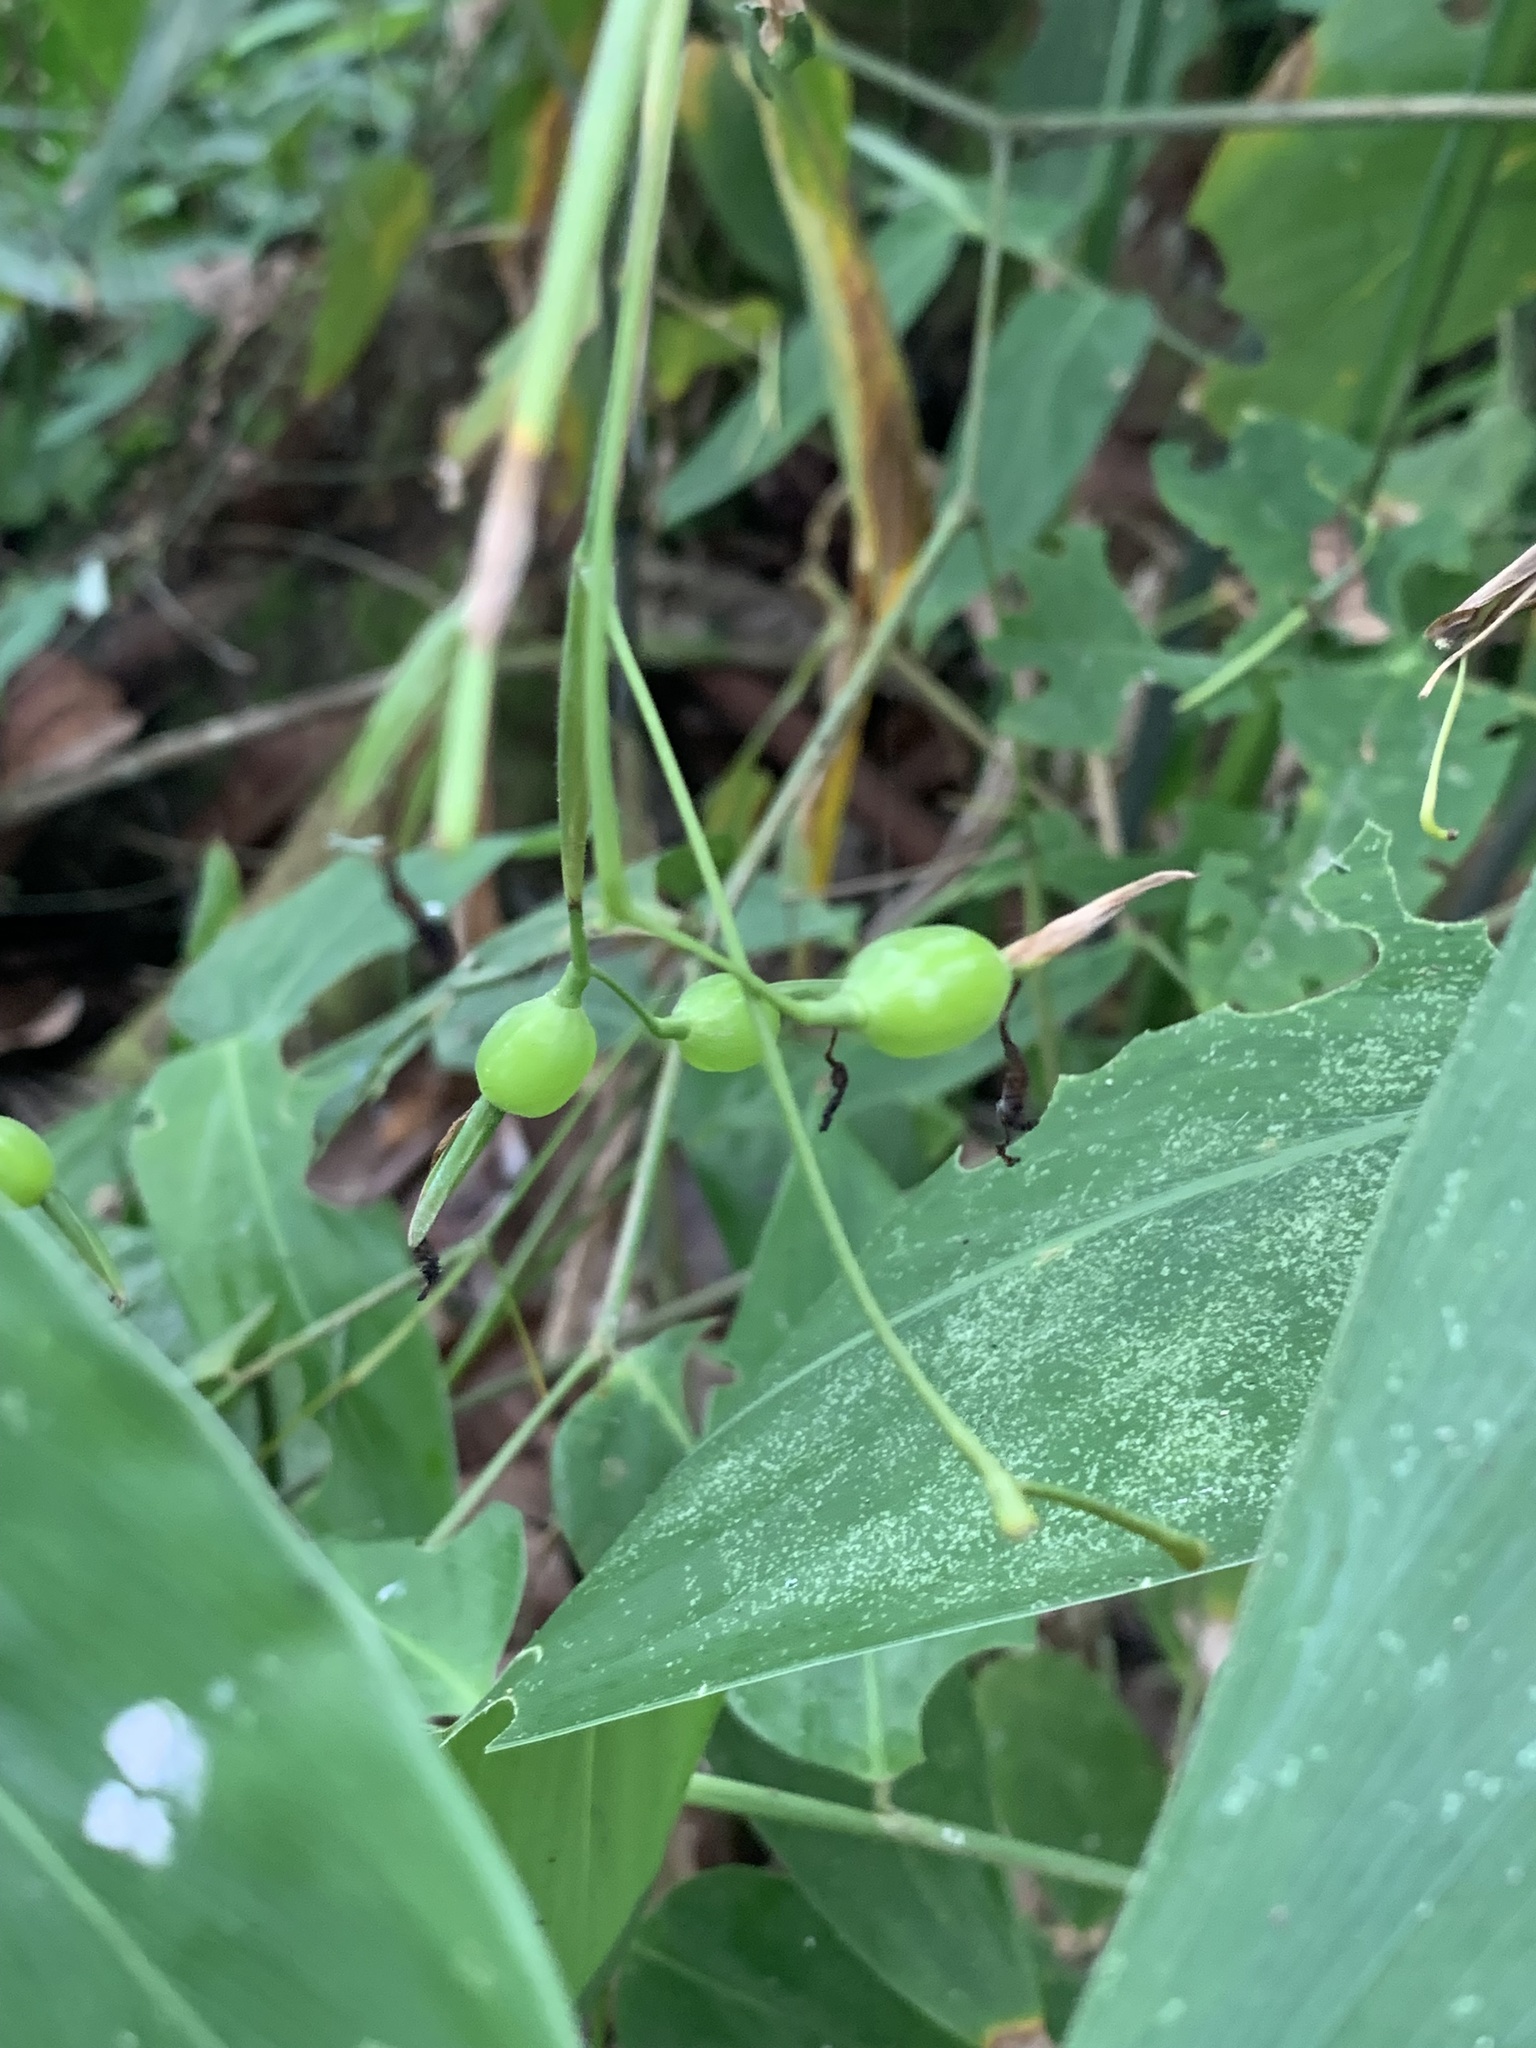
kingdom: Plantae
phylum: Tracheophyta
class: Liliopsida
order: Zingiberales
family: Marantaceae
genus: Maranta
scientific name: Maranta gibba
